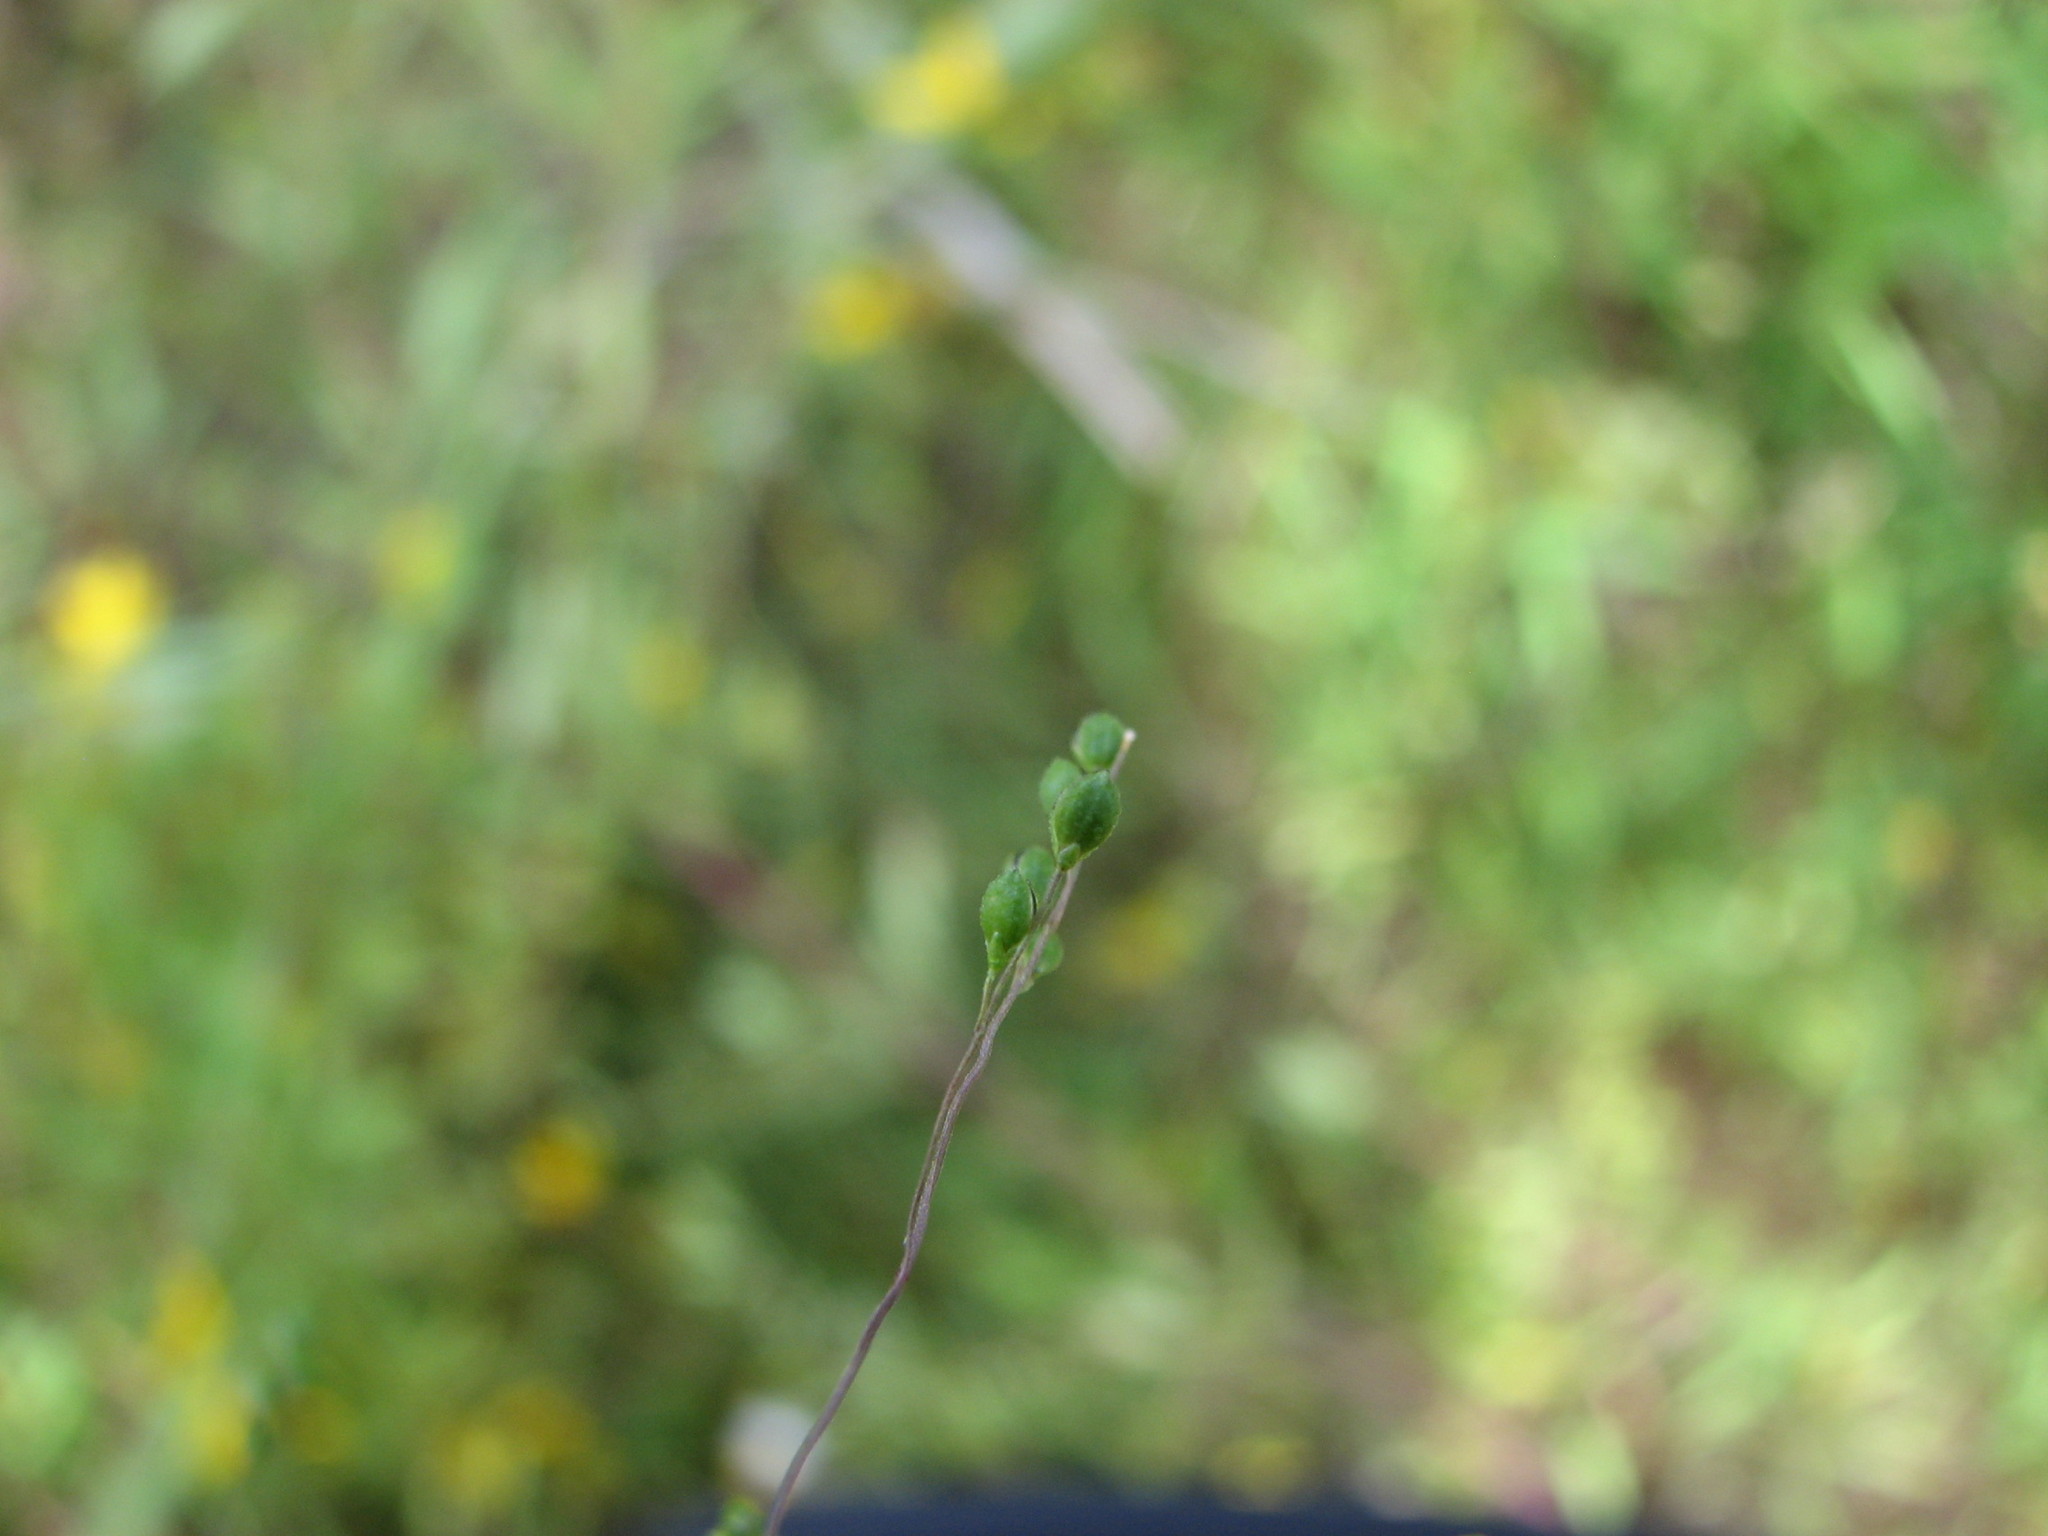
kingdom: Plantae
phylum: Tracheophyta
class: Liliopsida
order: Poales
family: Poaceae
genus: Kellochloa
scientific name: Kellochloa verrucosa
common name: Warty panic grass
